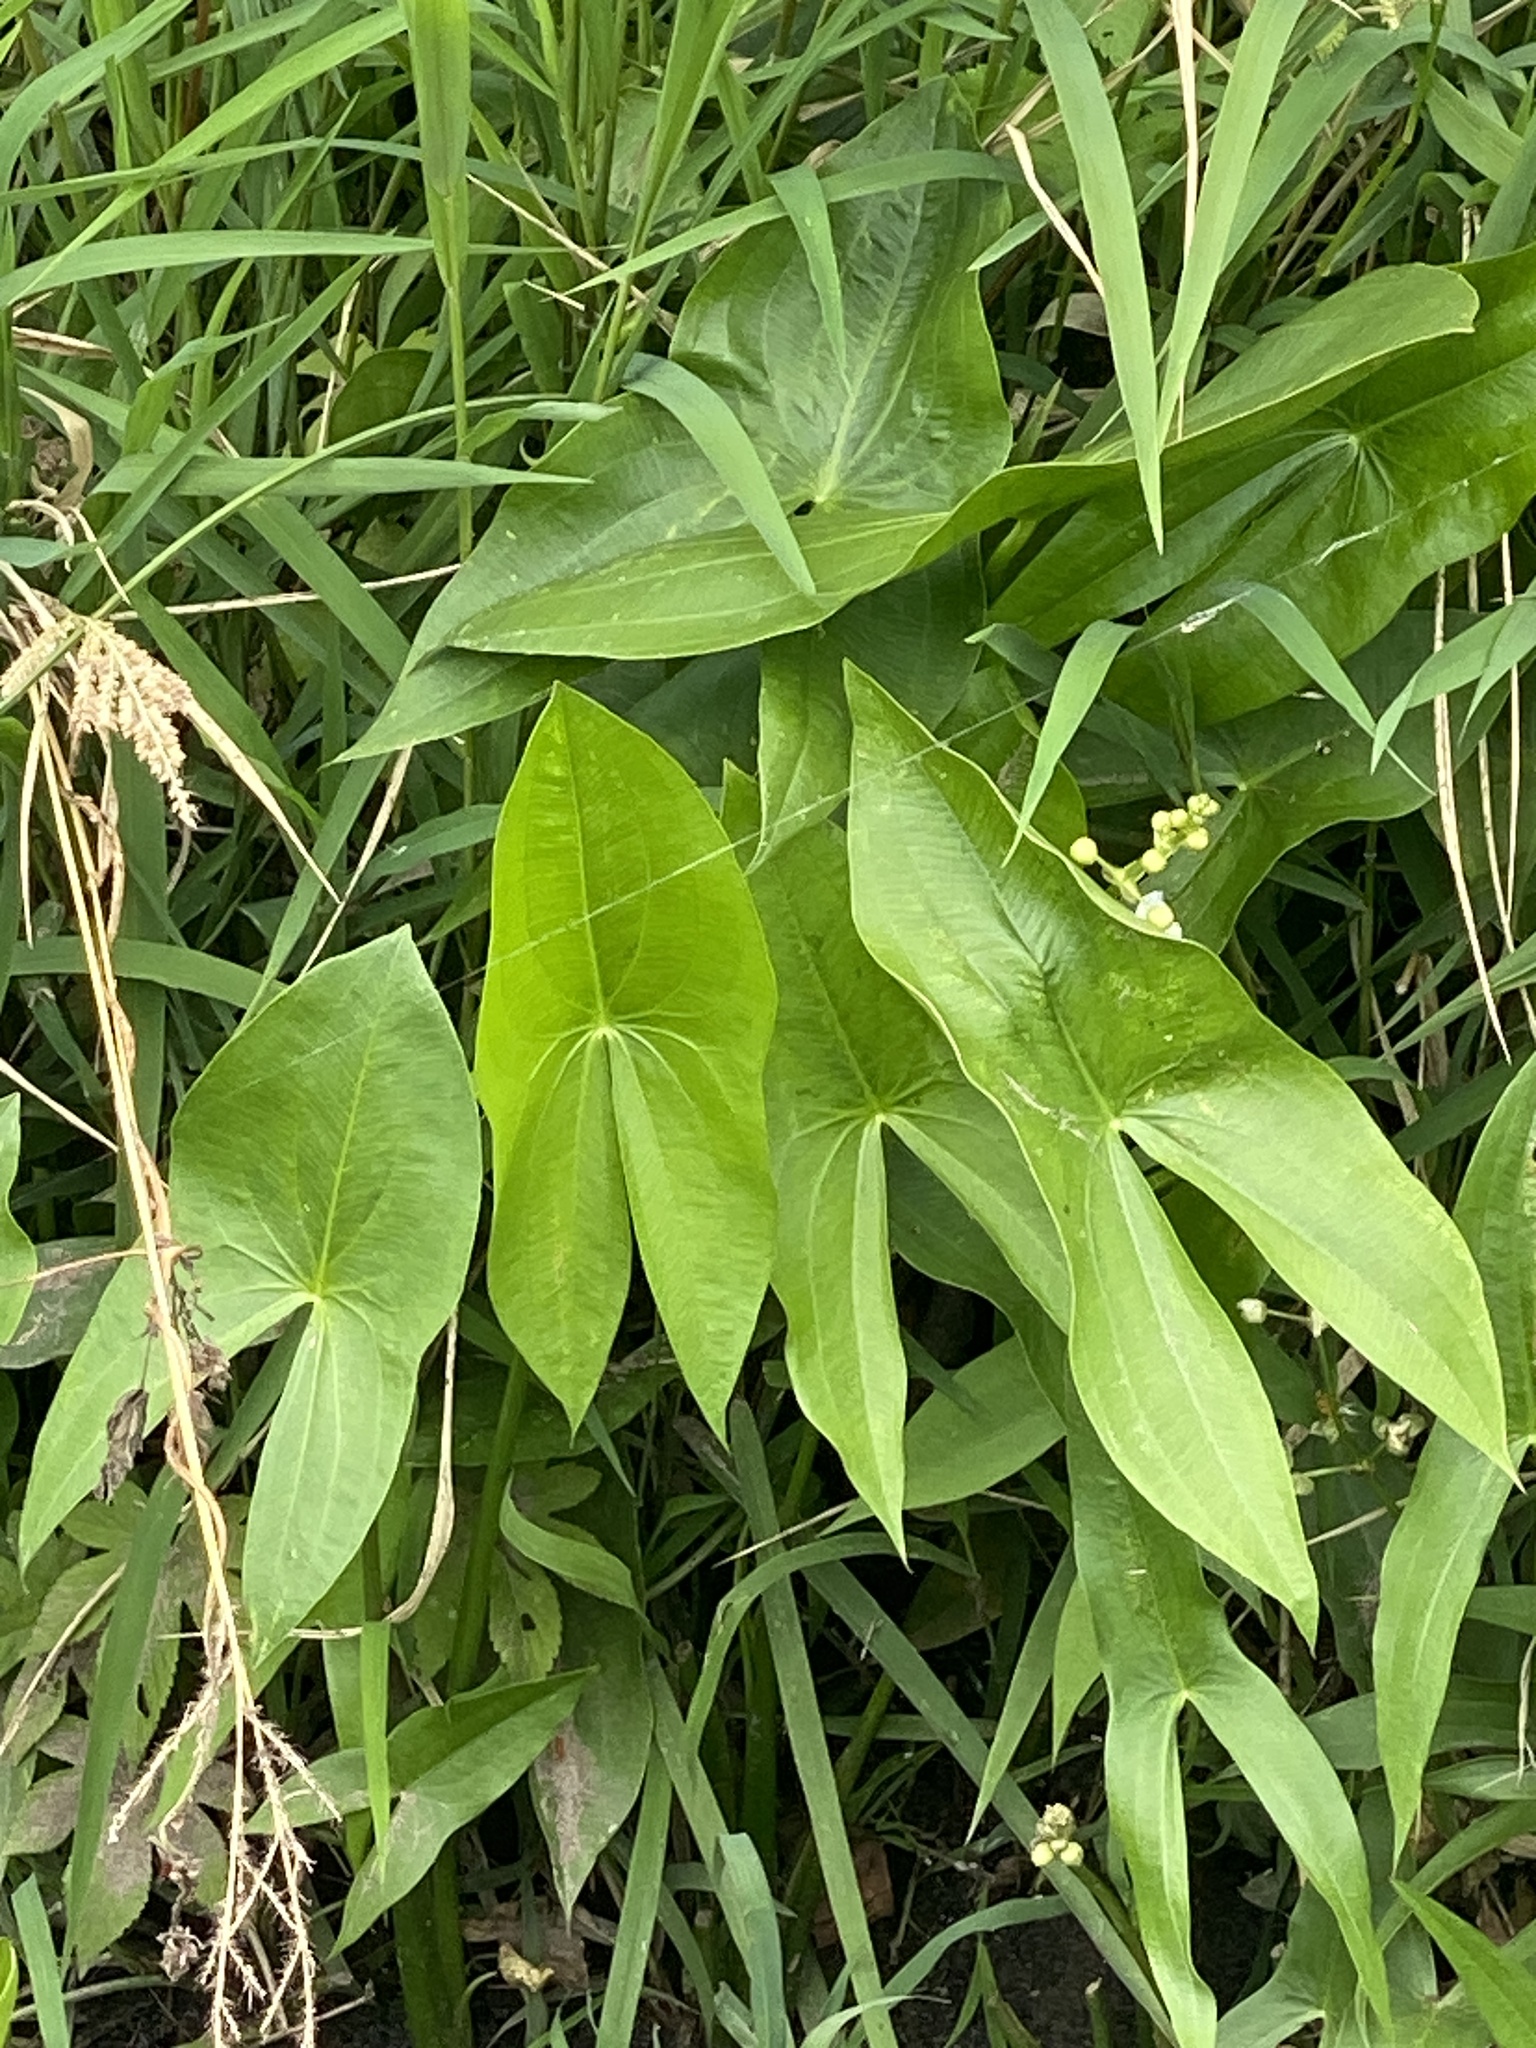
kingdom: Plantae
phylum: Tracheophyta
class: Liliopsida
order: Alismatales
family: Alismataceae
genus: Sagittaria
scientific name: Sagittaria latifolia
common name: Duck-potato
